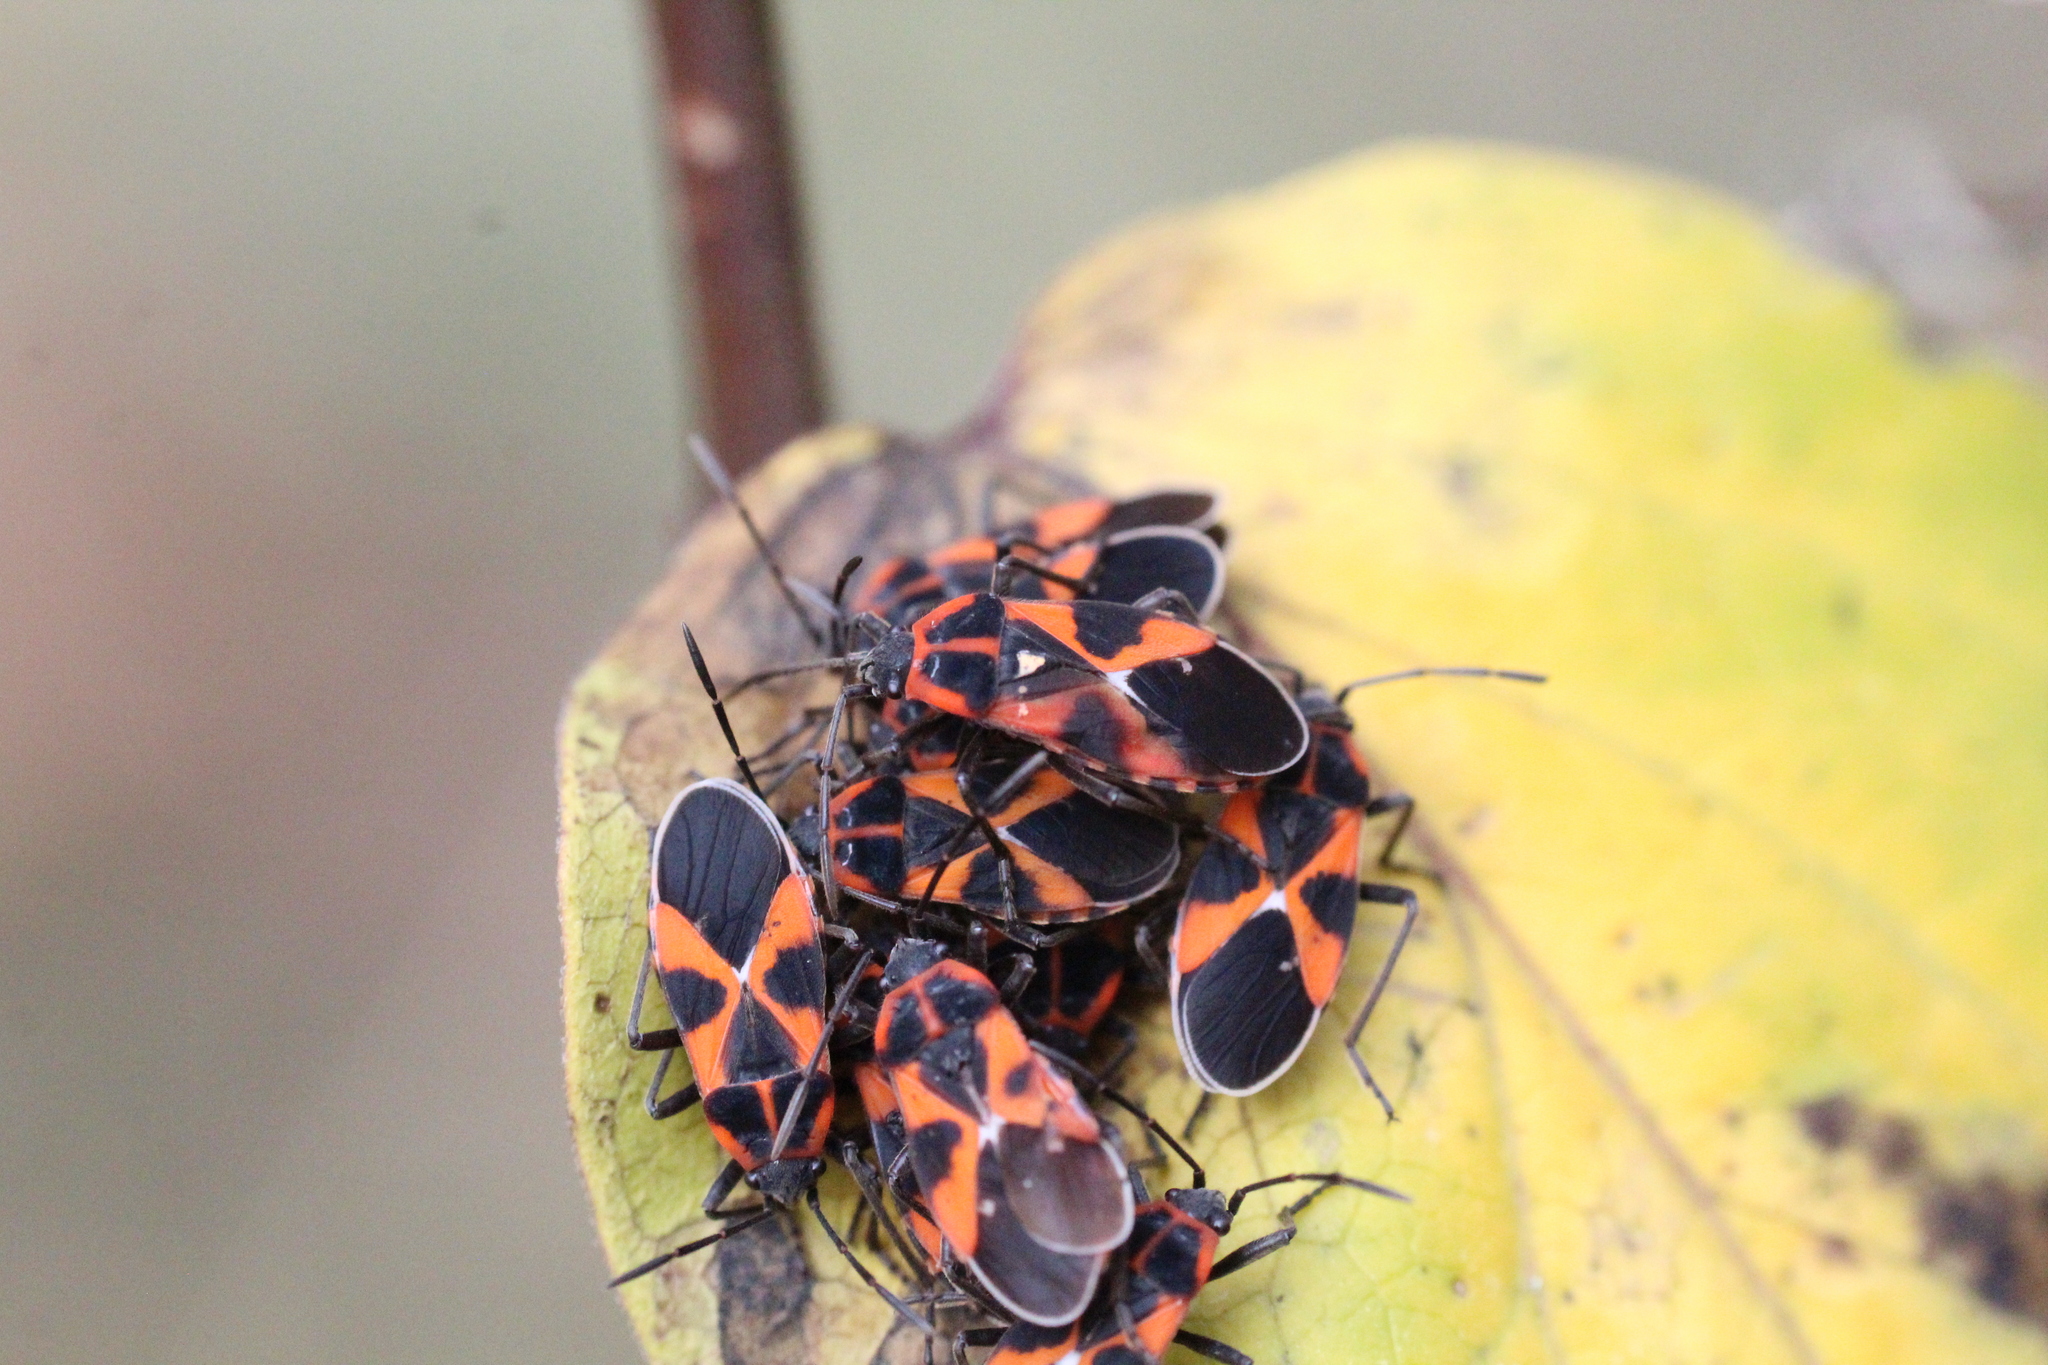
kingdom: Animalia
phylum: Arthropoda
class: Insecta
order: Hemiptera
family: Lygaeidae
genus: Tropidothorax
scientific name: Tropidothorax leucopterus
